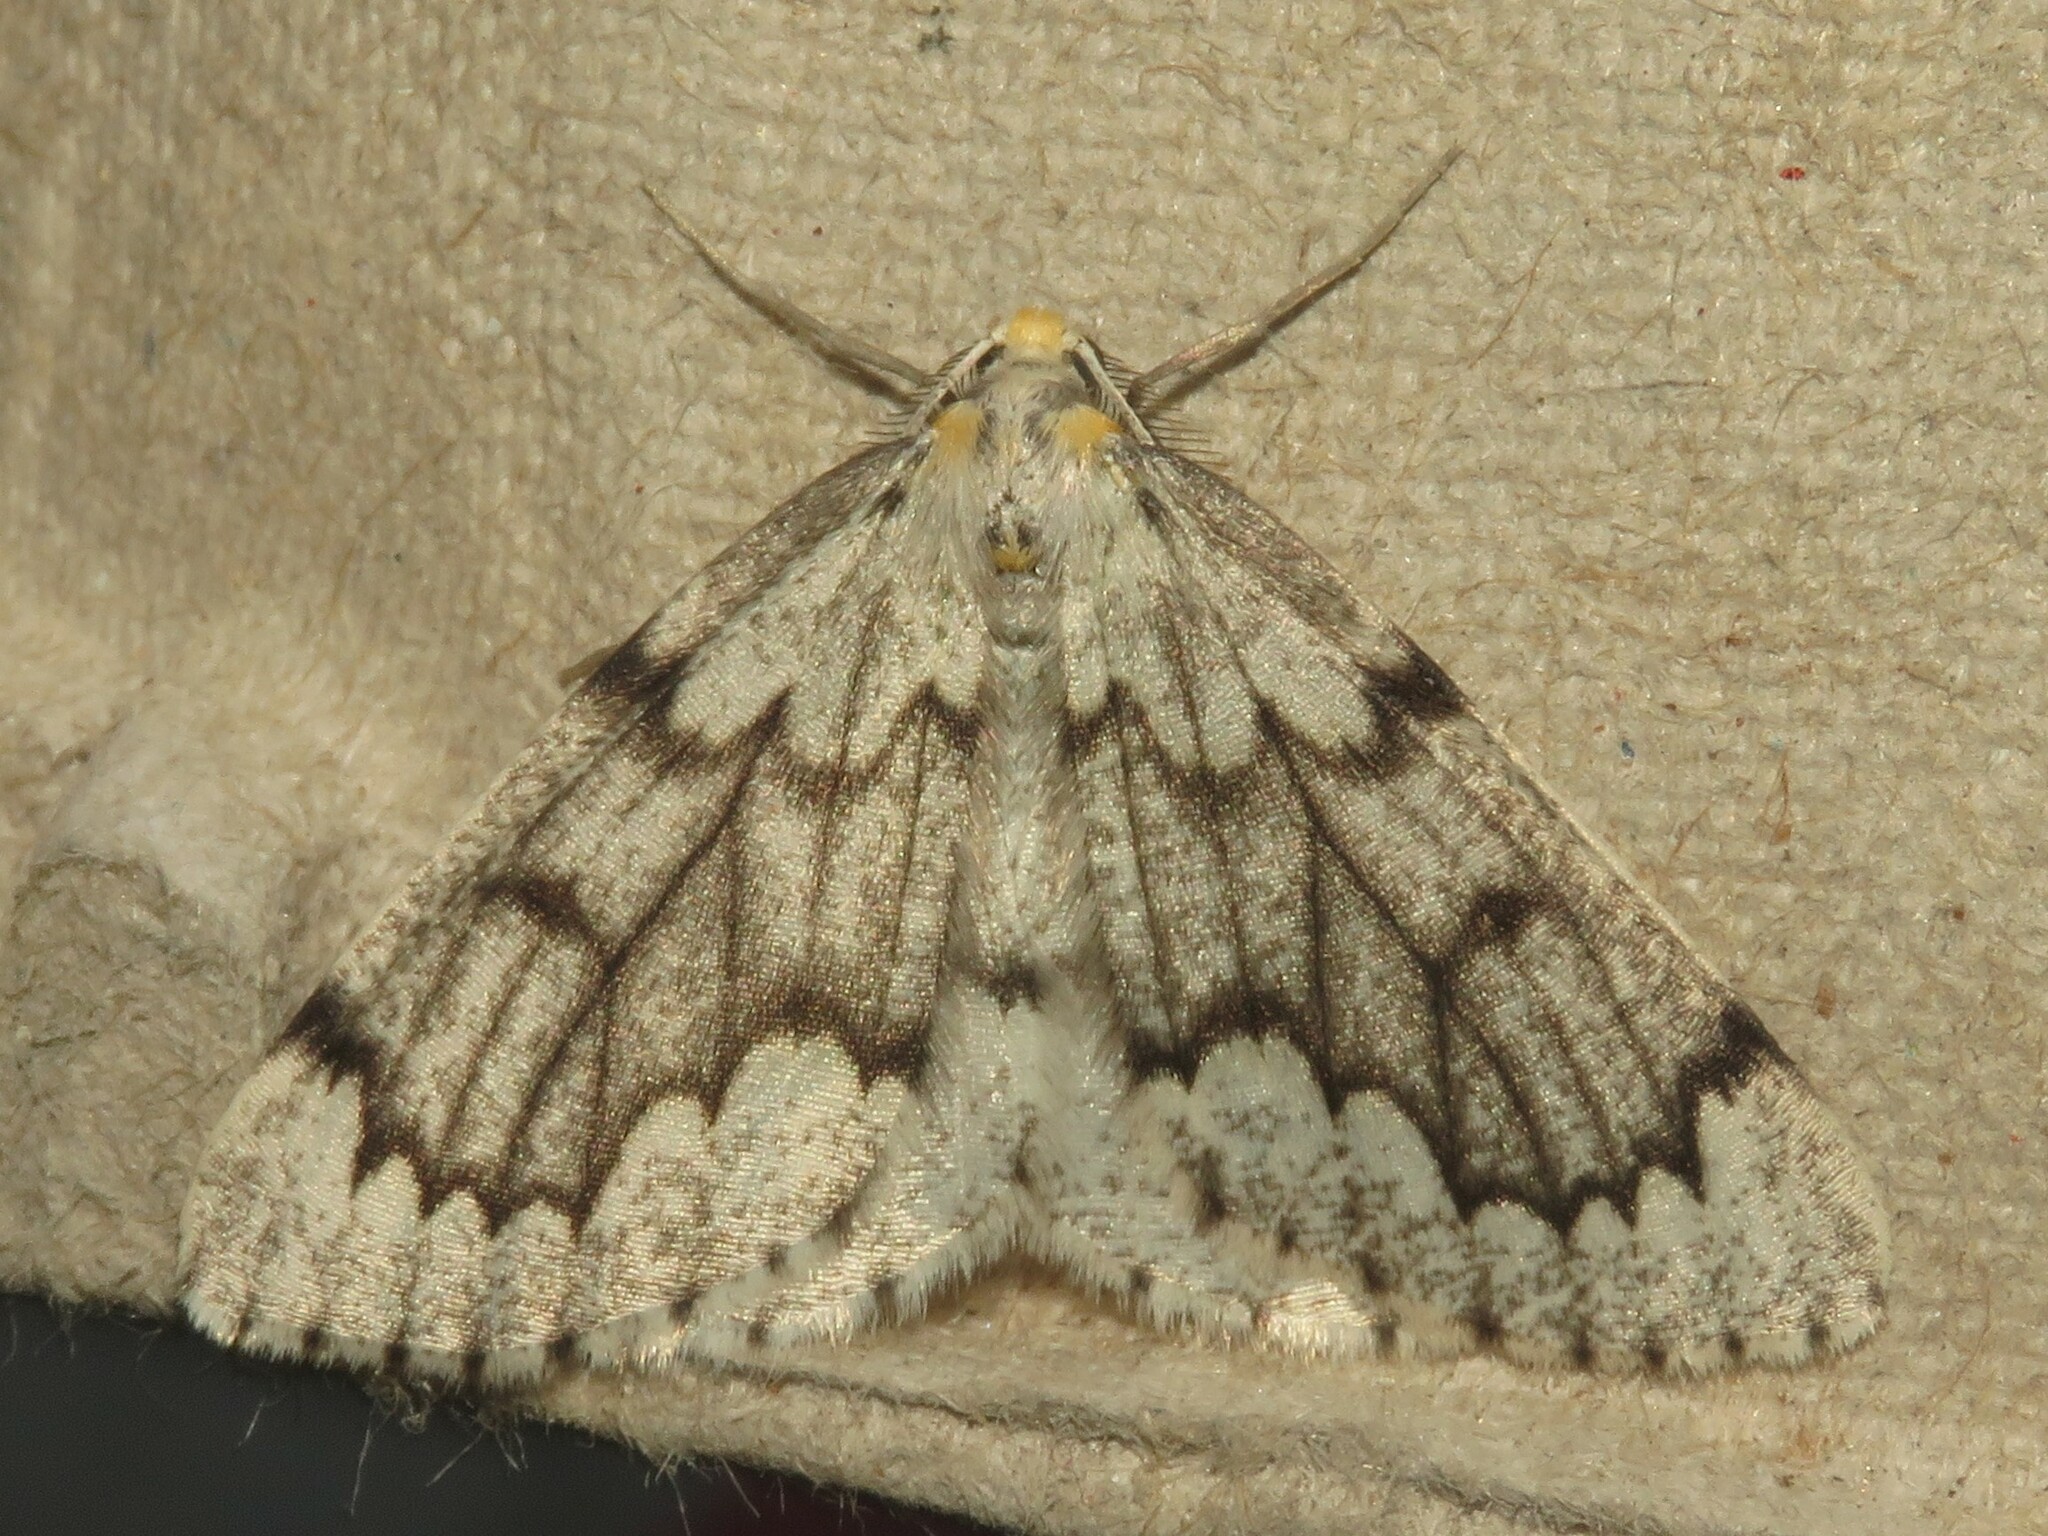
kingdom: Animalia
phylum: Arthropoda
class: Insecta
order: Lepidoptera
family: Geometridae
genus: Nepytia
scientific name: Nepytia canosaria
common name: False hemlock looper
